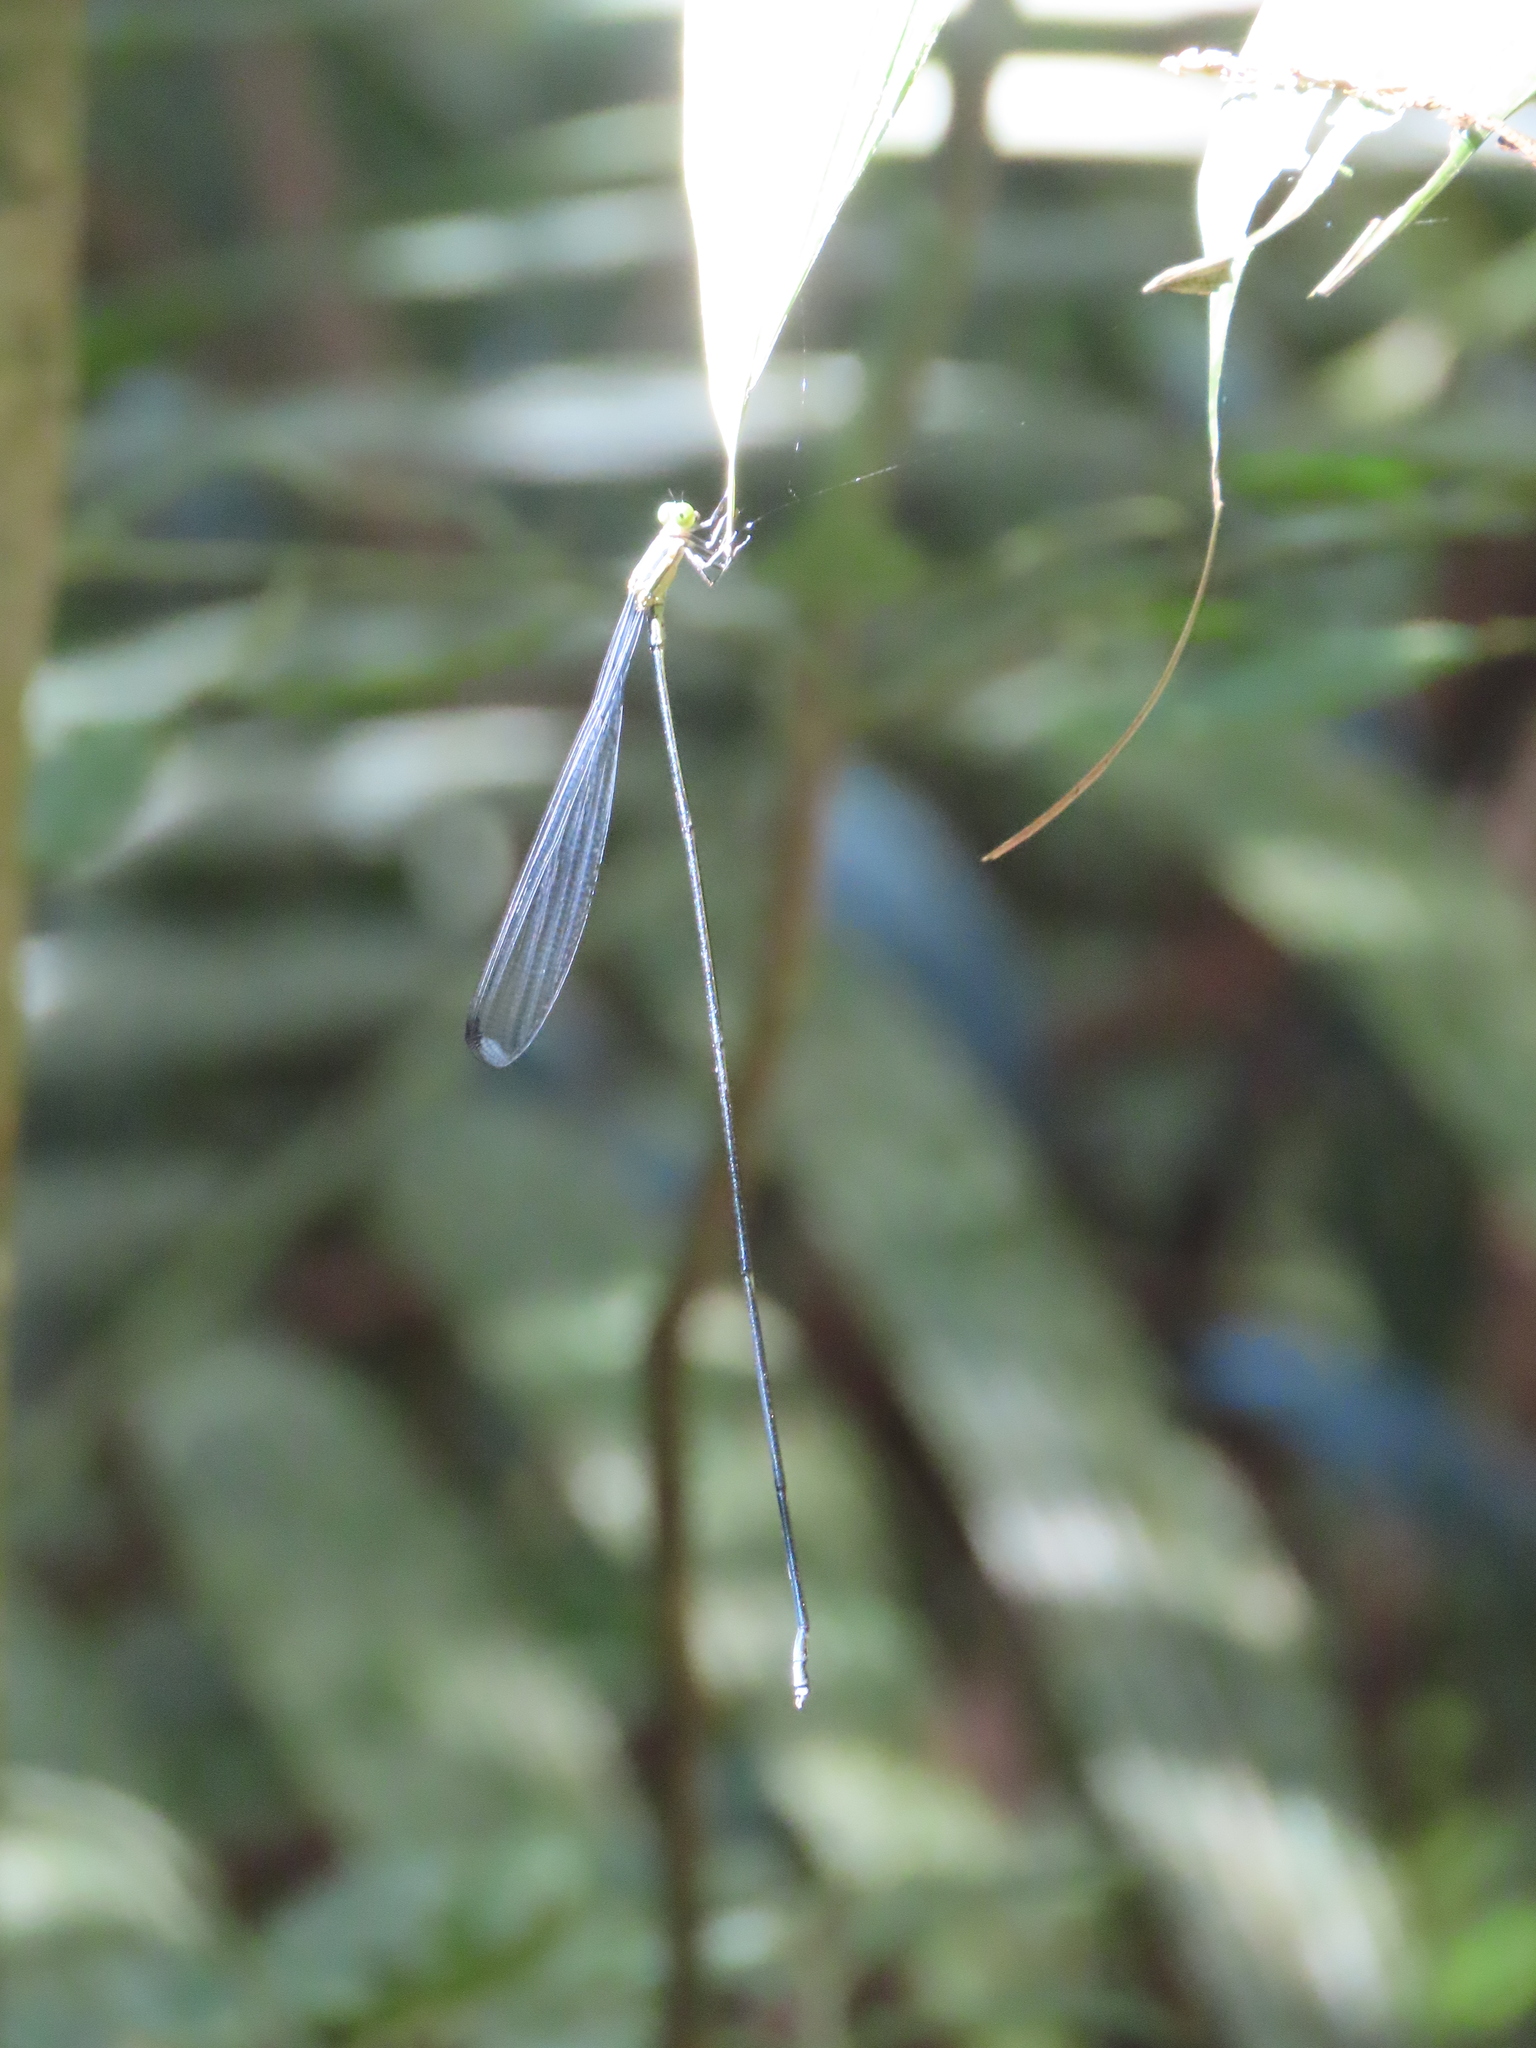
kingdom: Animalia
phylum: Arthropoda
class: Insecta
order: Odonata
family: Coenagrionidae
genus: Mecistogaster
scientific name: Mecistogaster linearis
